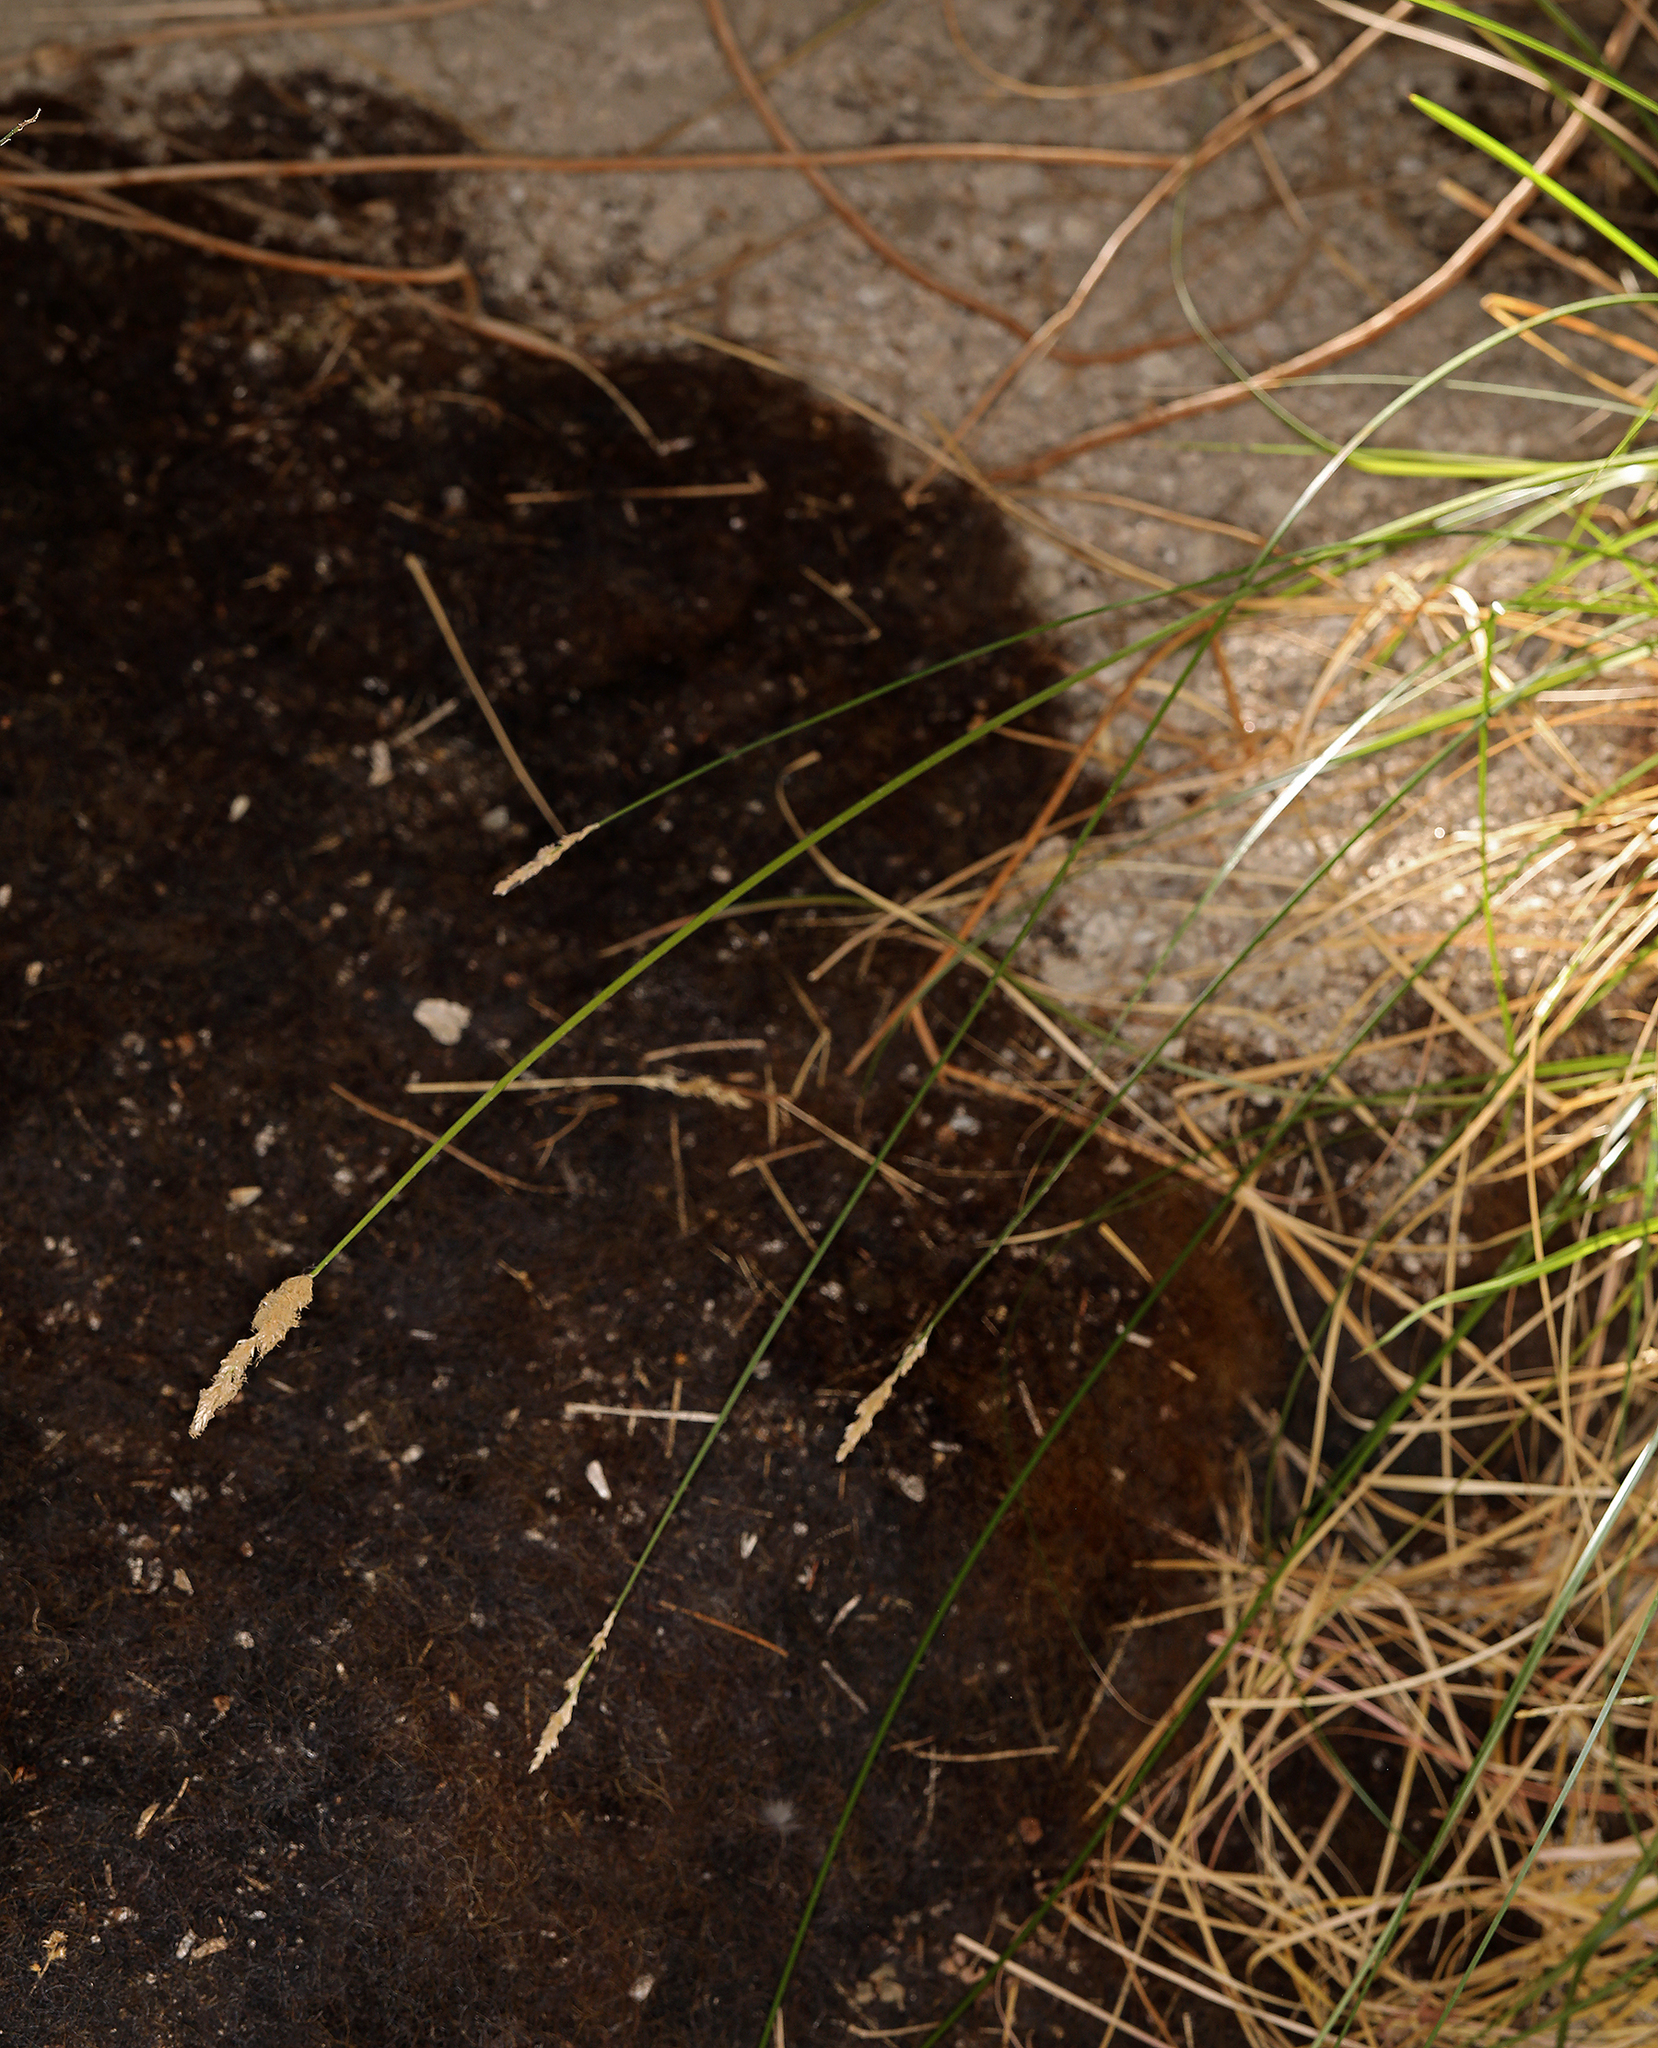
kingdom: Plantae
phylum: Tracheophyta
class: Liliopsida
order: Poales
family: Cyperaceae
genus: Carex
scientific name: Carex alma
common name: Alma sedge
